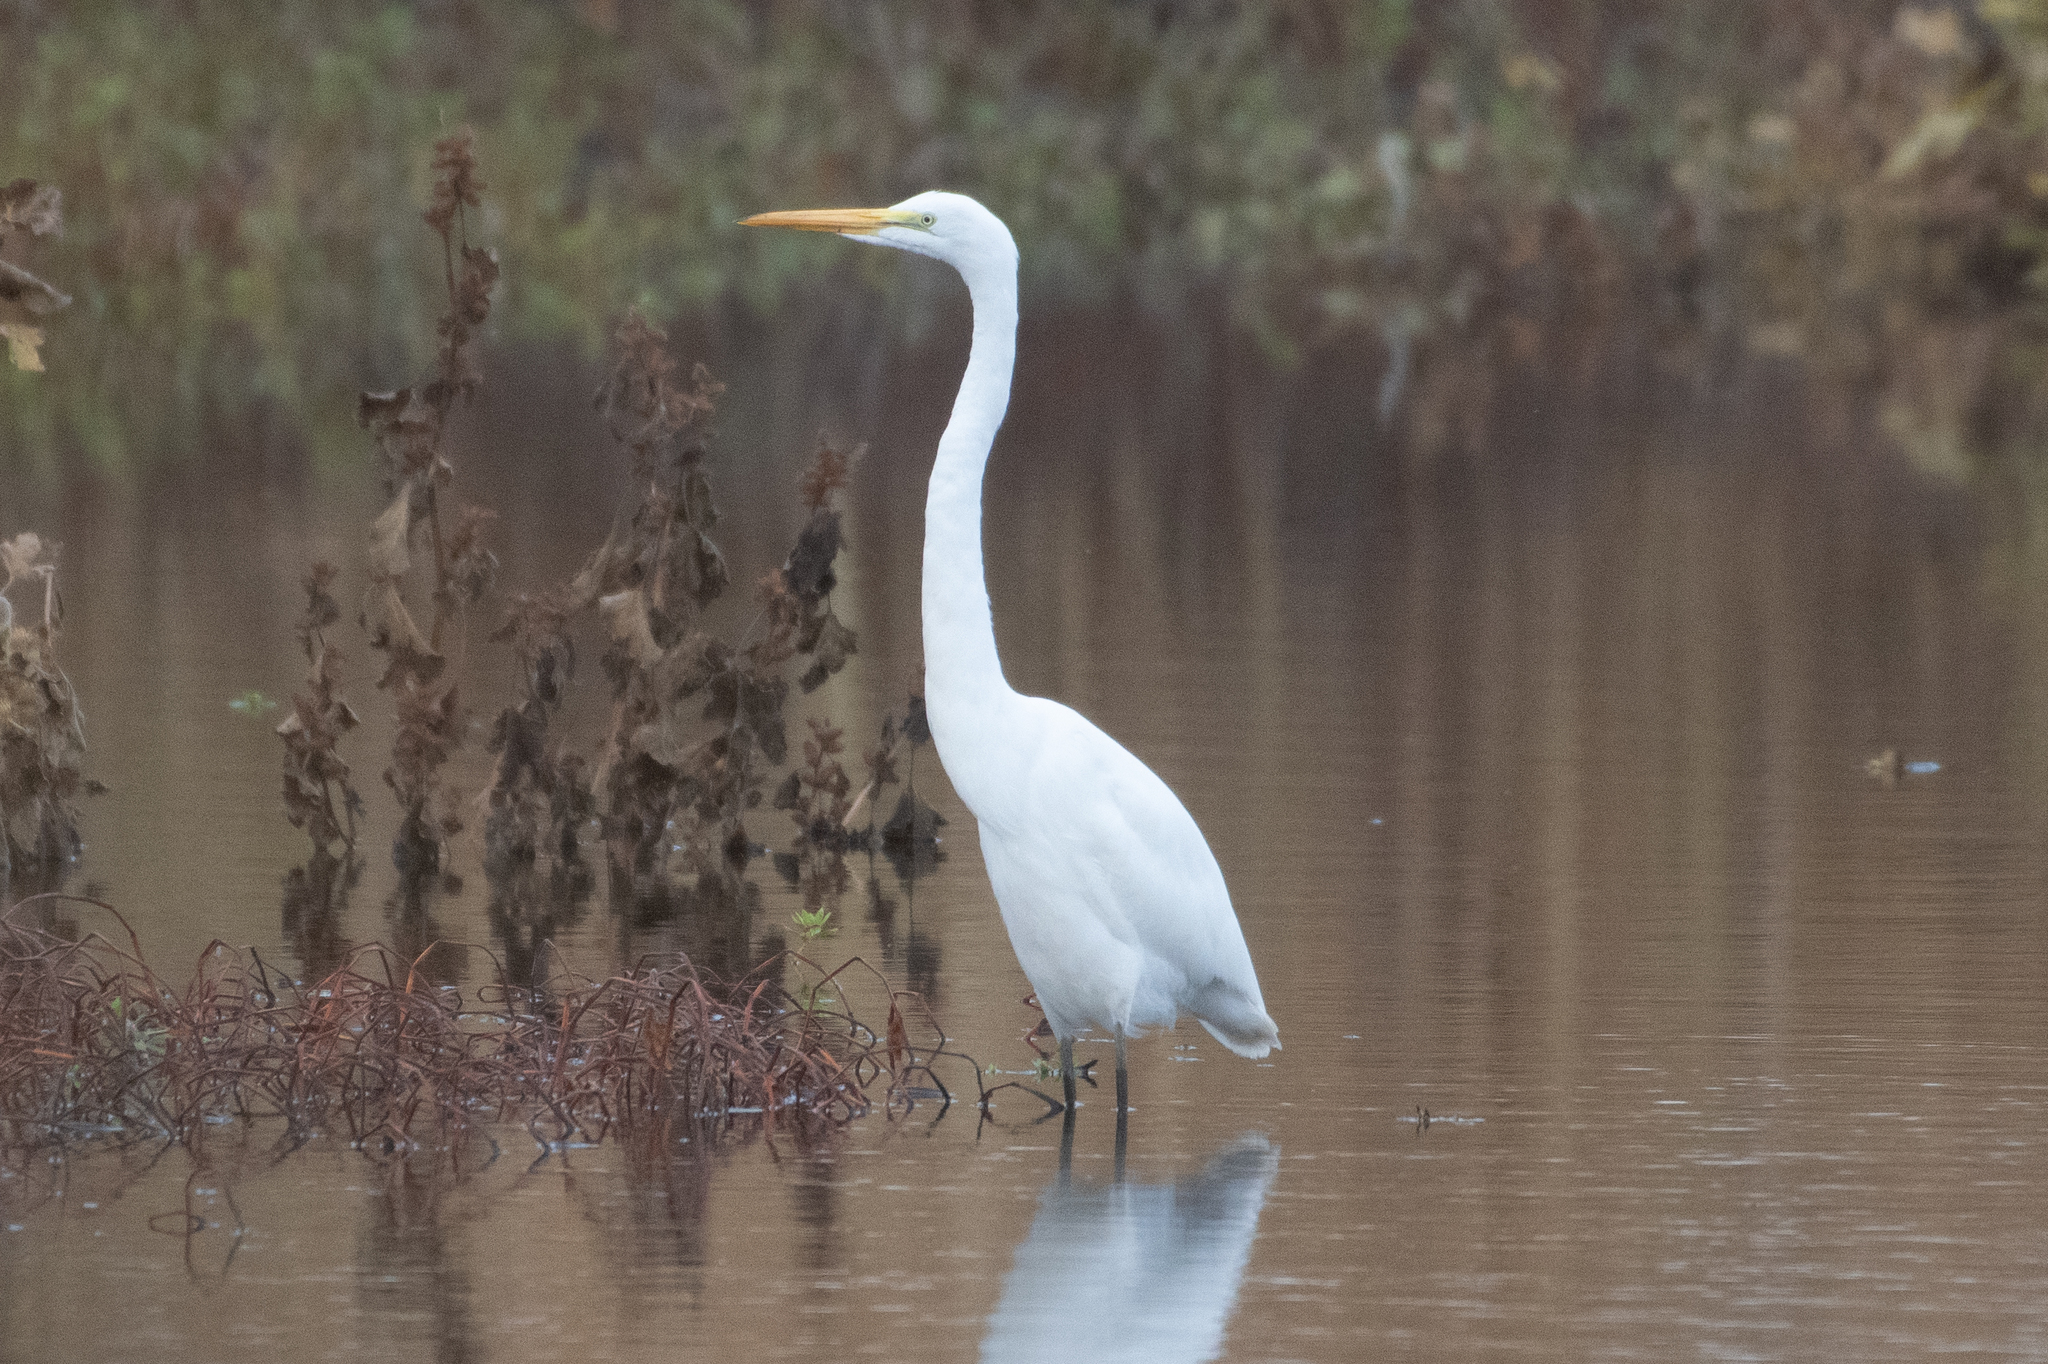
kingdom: Animalia
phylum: Chordata
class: Aves
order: Pelecaniformes
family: Ardeidae
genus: Ardea
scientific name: Ardea alba
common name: Great egret
